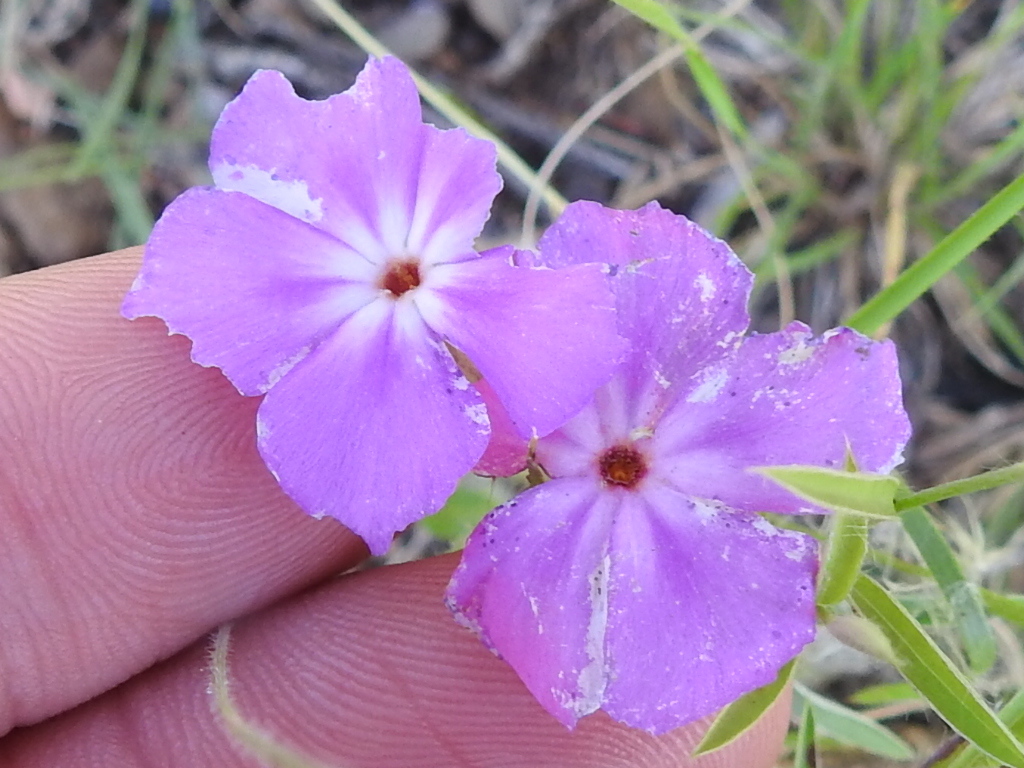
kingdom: Plantae
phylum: Tracheophyta
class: Magnoliopsida
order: Ericales
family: Polemoniaceae
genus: Phlox
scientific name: Phlox drummondii
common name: Drummond's phlox
